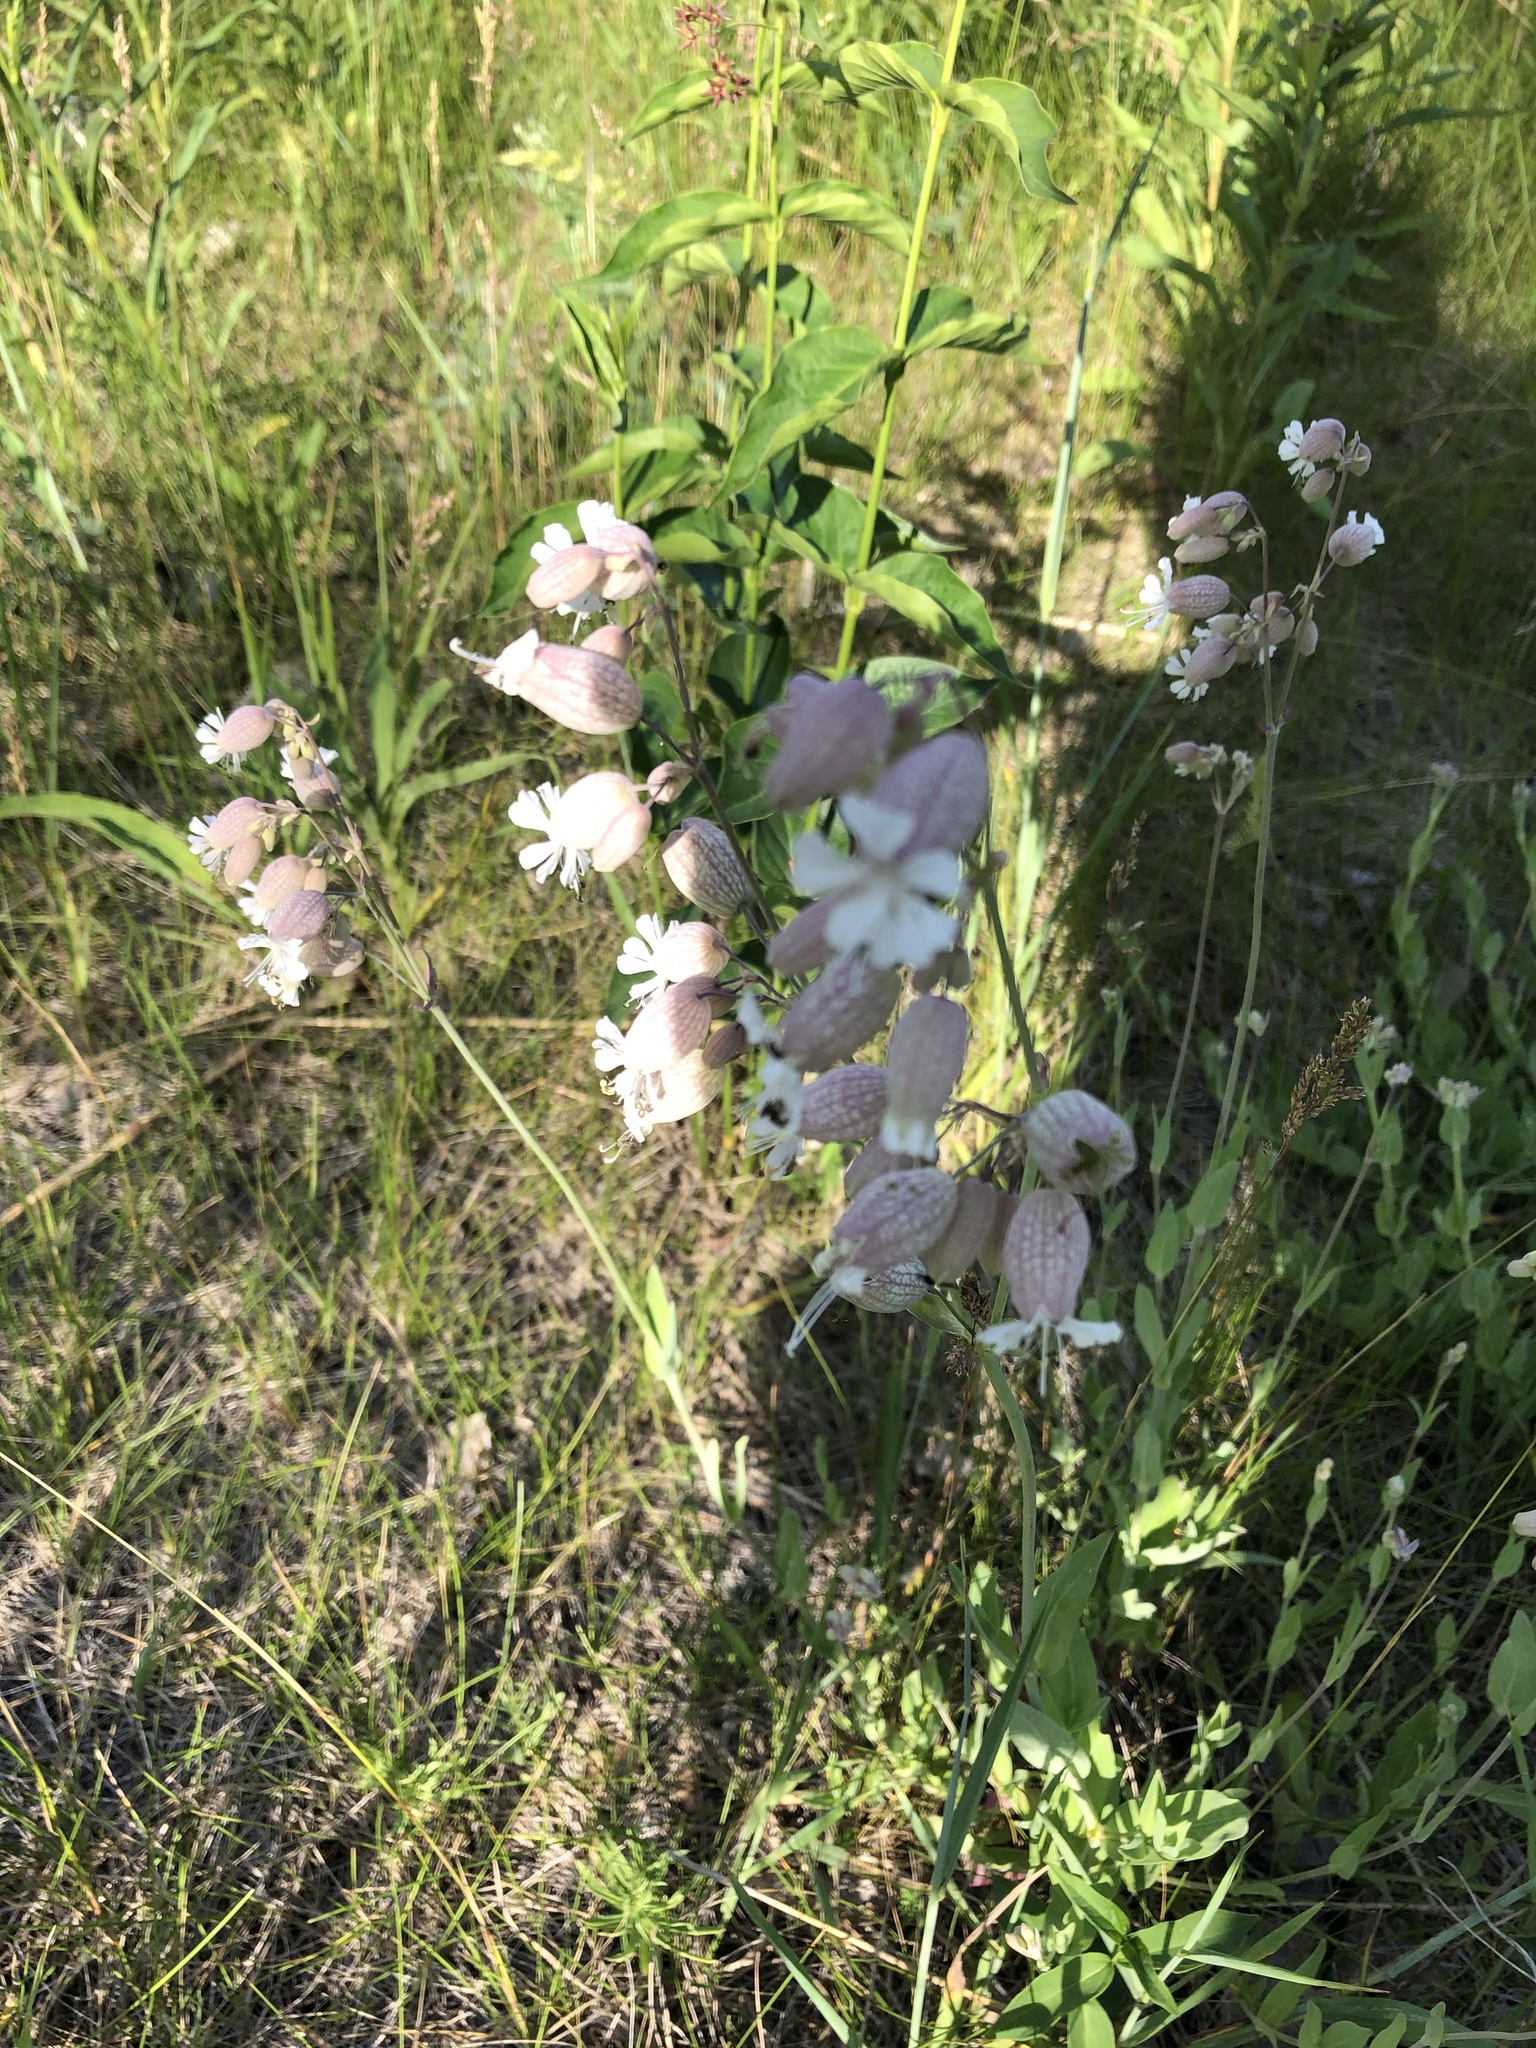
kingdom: Plantae
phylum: Tracheophyta
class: Magnoliopsida
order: Caryophyllales
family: Caryophyllaceae
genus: Silene
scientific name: Silene vulgaris
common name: Bladder campion
